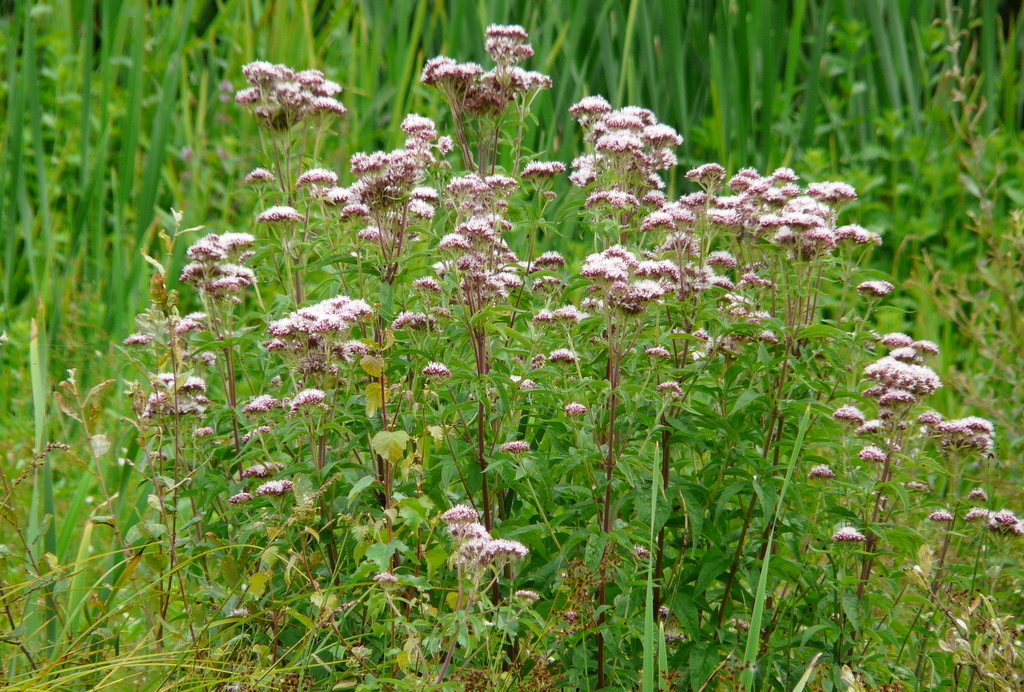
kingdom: Plantae
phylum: Tracheophyta
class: Magnoliopsida
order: Asterales
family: Asteraceae
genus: Eupatorium
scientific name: Eupatorium cannabinum
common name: Hemp-agrimony
